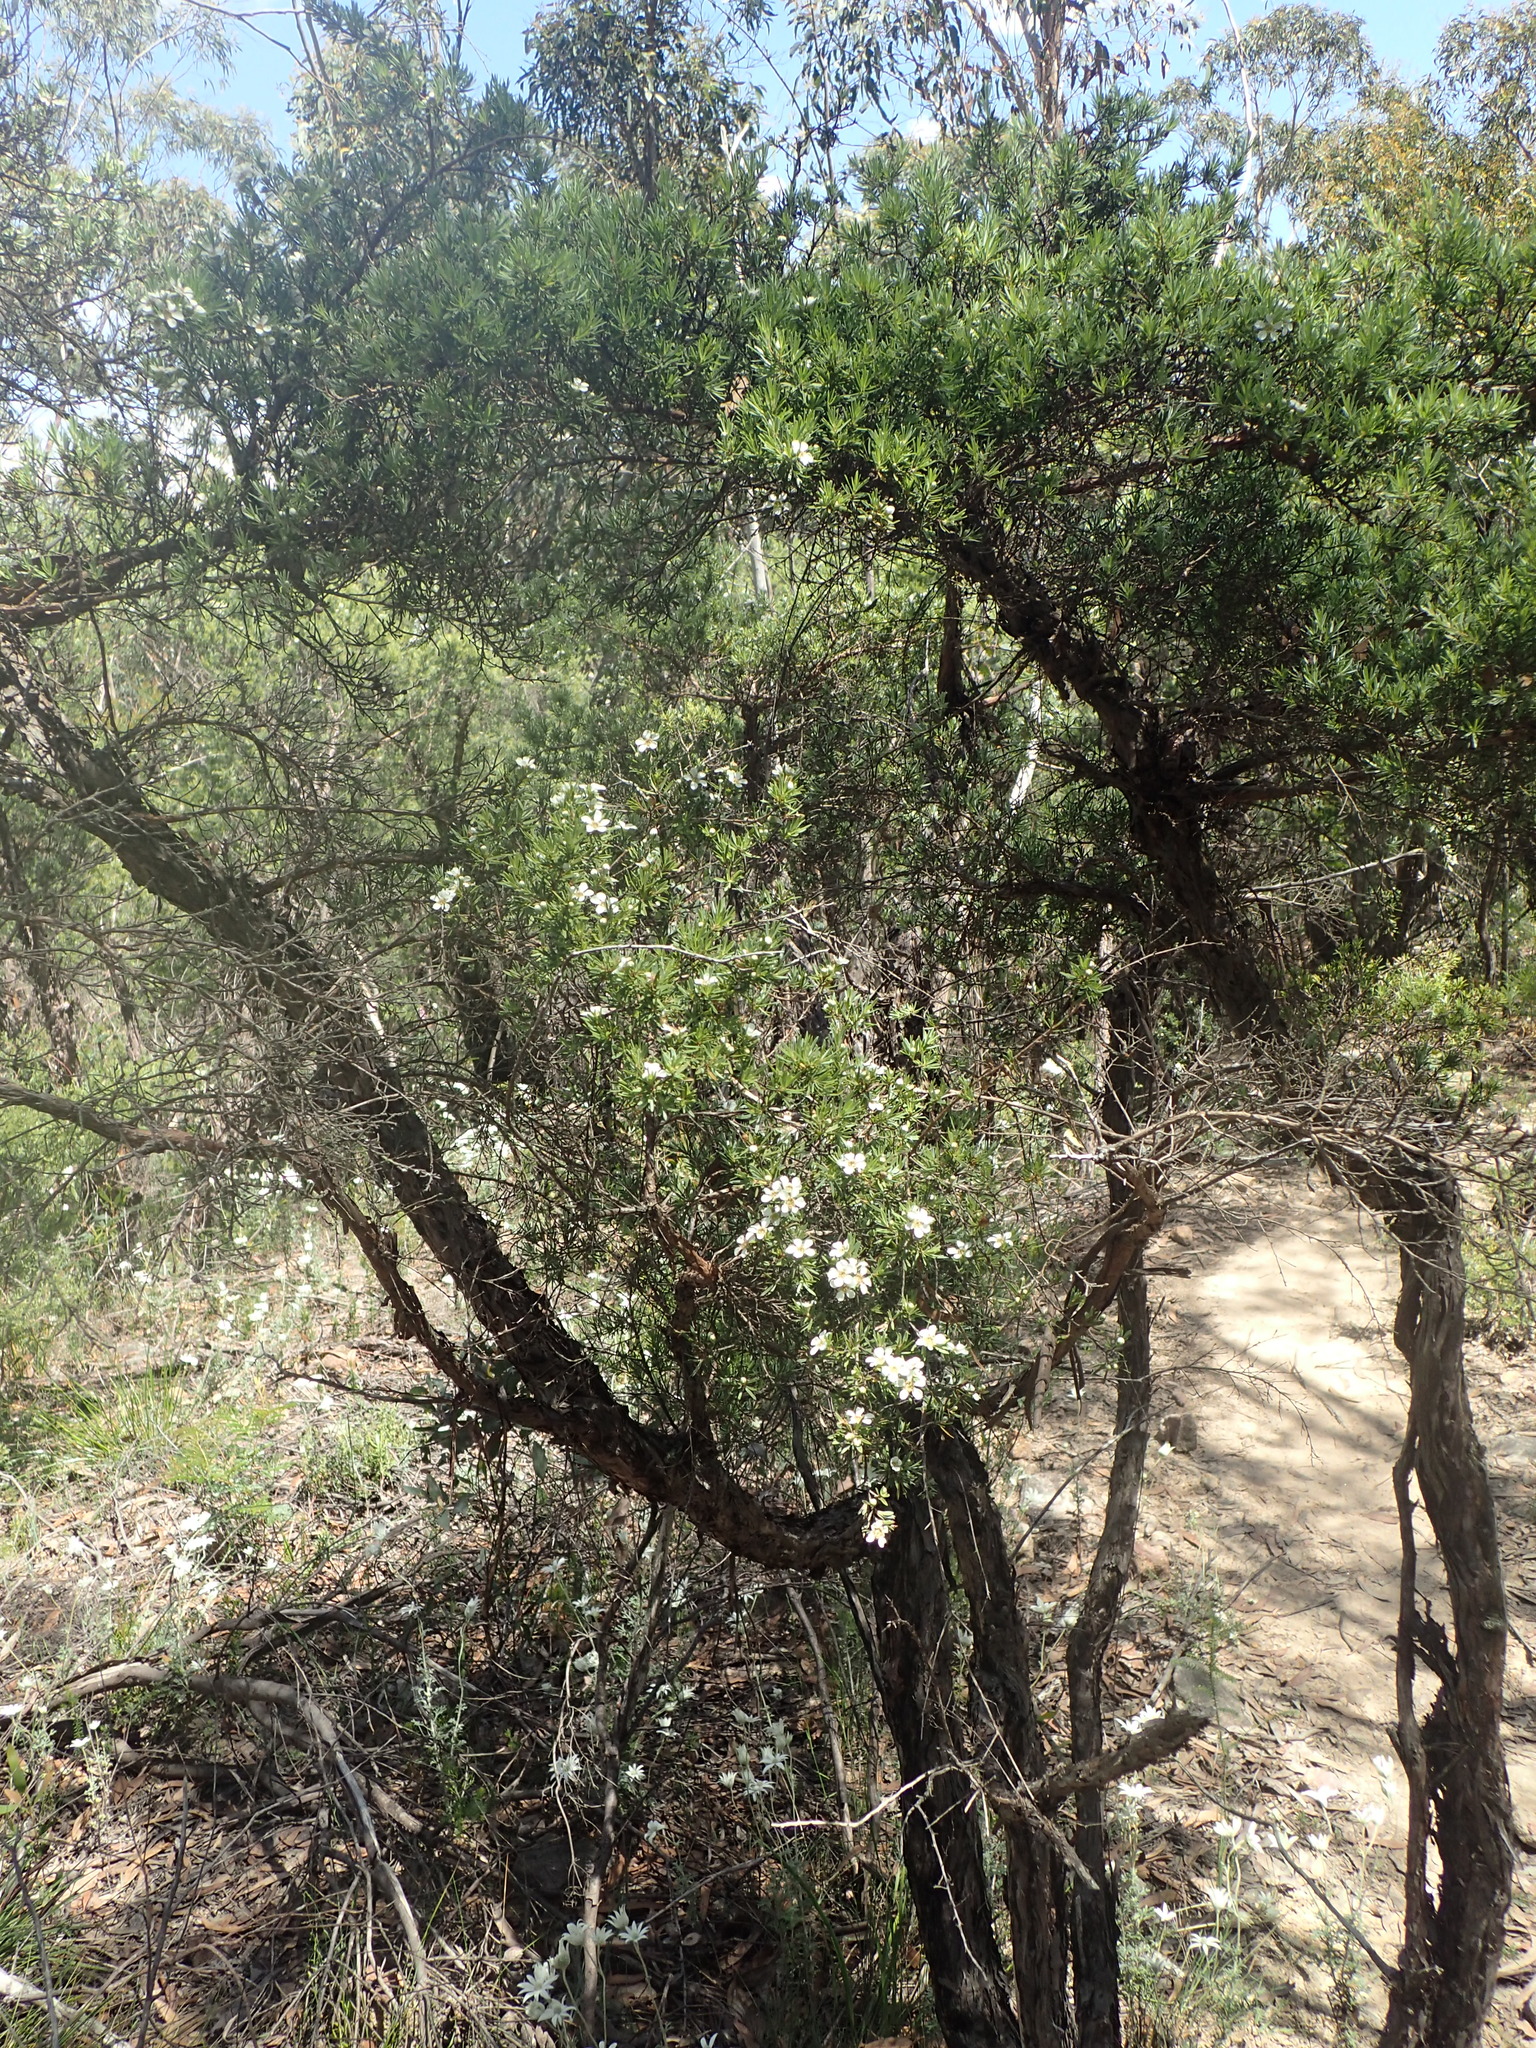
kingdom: Plantae
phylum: Tracheophyta
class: Magnoliopsida
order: Myrtales
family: Myrtaceae
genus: Leptospermum
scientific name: Leptospermum polygalifolium
